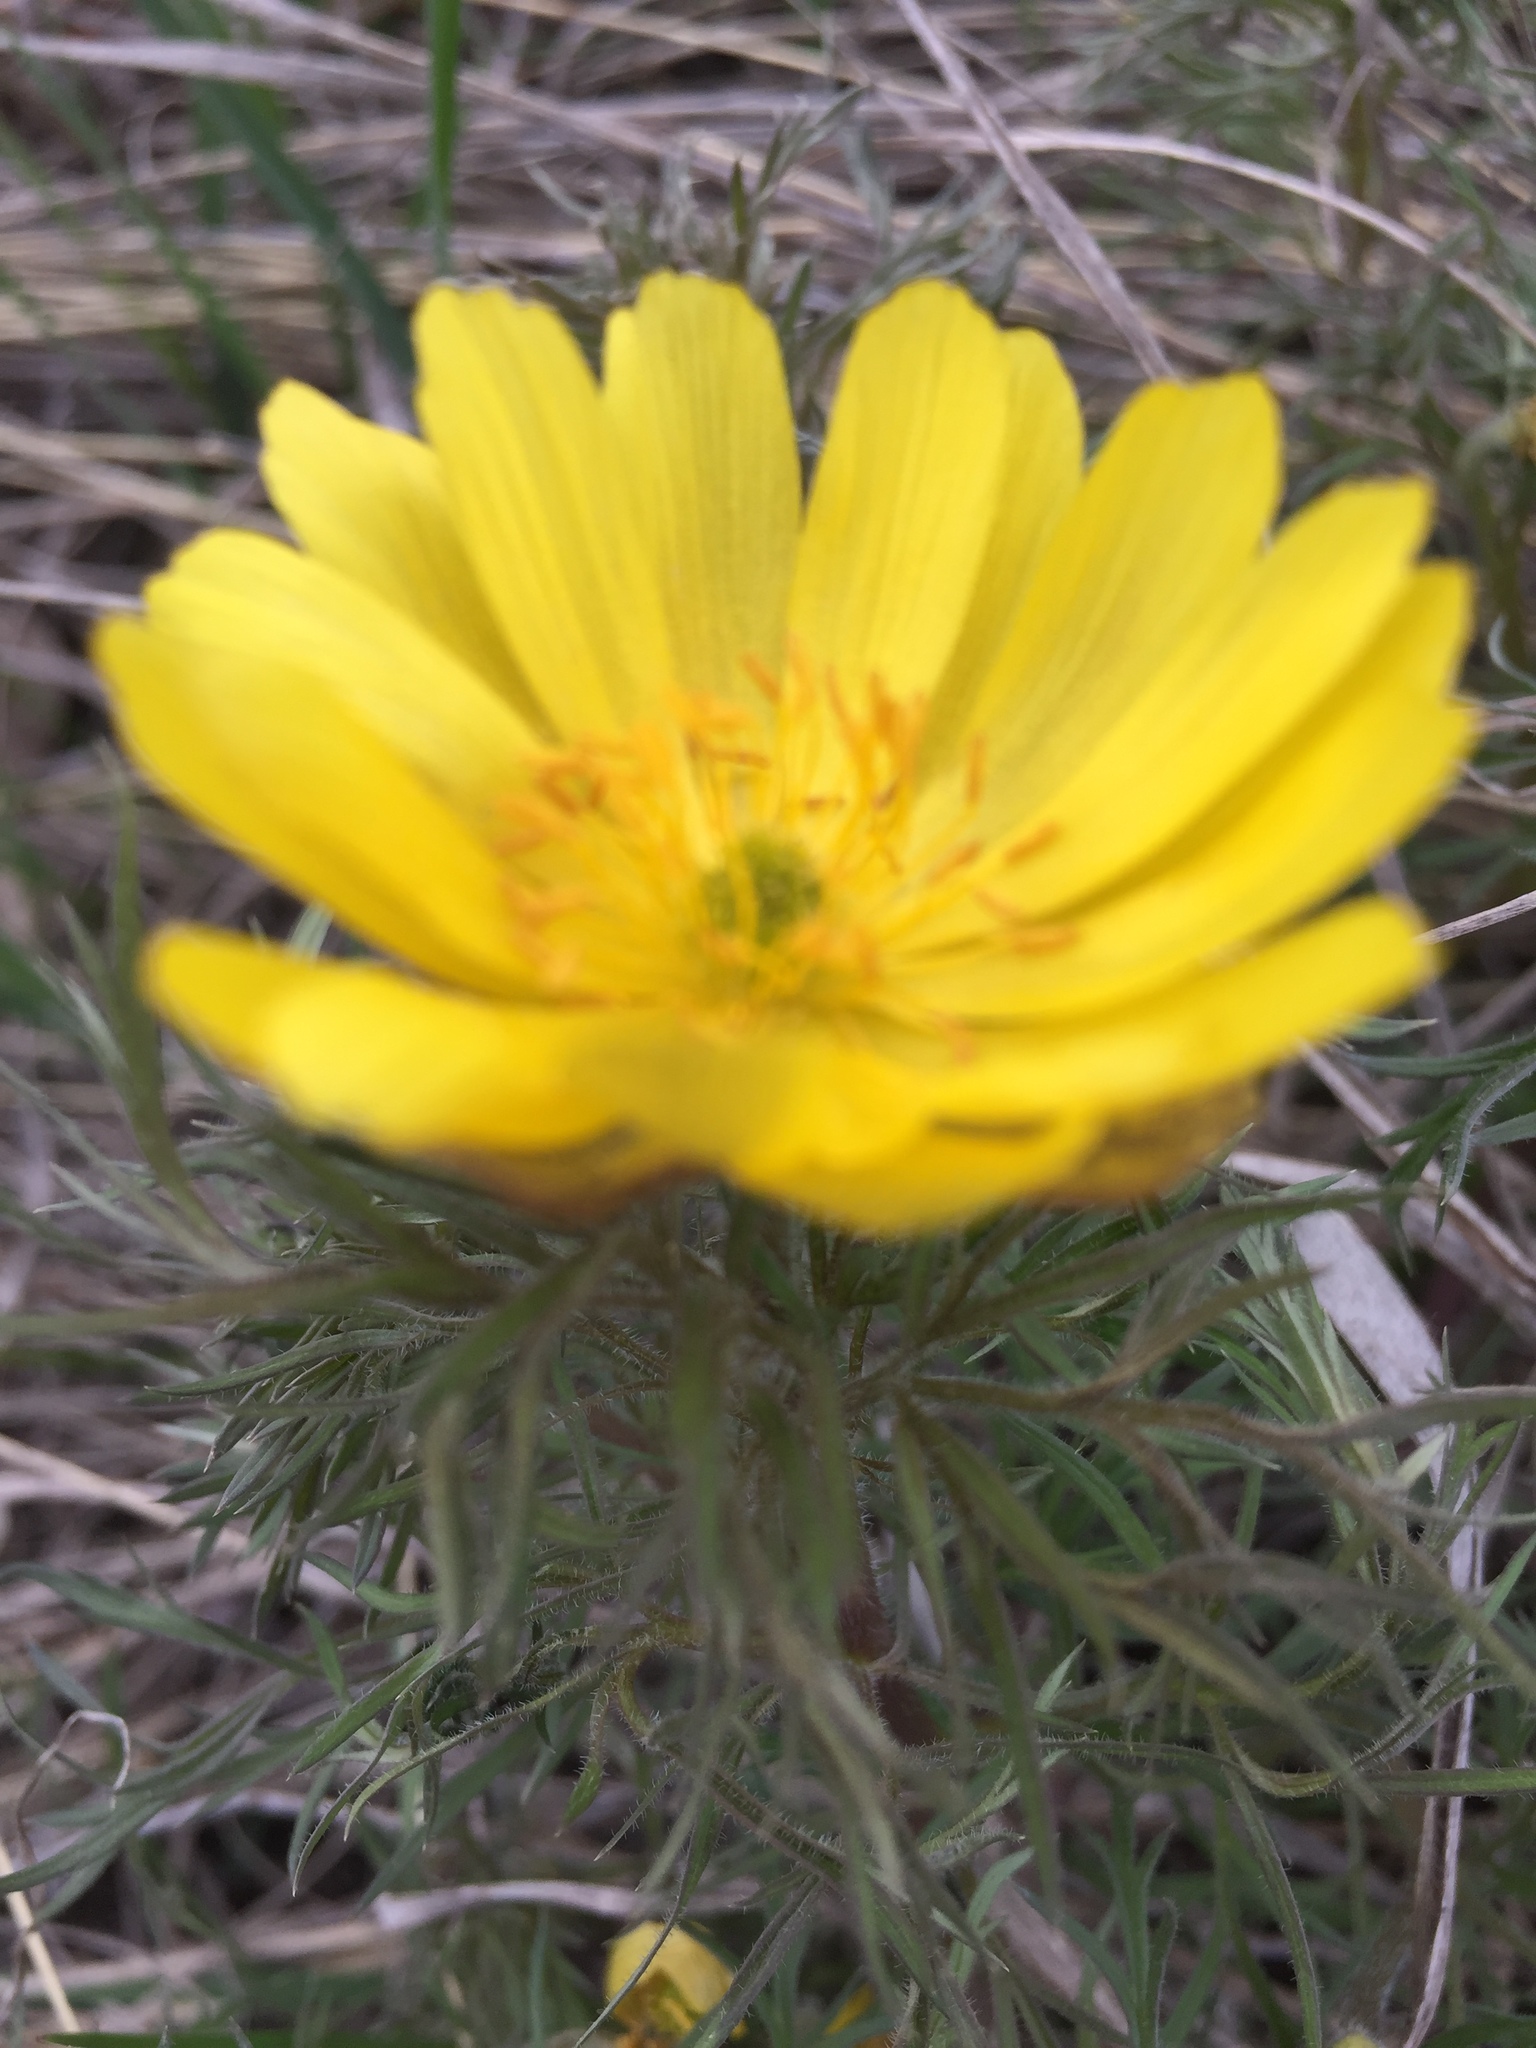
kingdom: Plantae
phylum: Tracheophyta
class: Magnoliopsida
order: Ranunculales
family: Ranunculaceae
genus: Adonis
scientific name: Adonis volgensis
